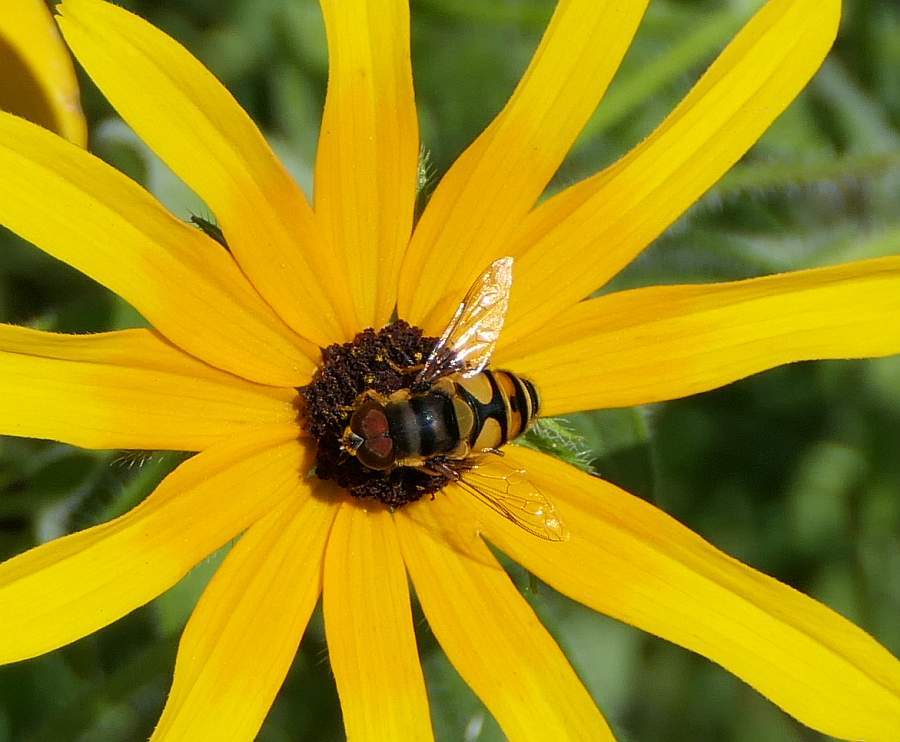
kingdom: Animalia
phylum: Arthropoda
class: Insecta
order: Diptera
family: Syrphidae
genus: Eristalis
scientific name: Eristalis transversa
